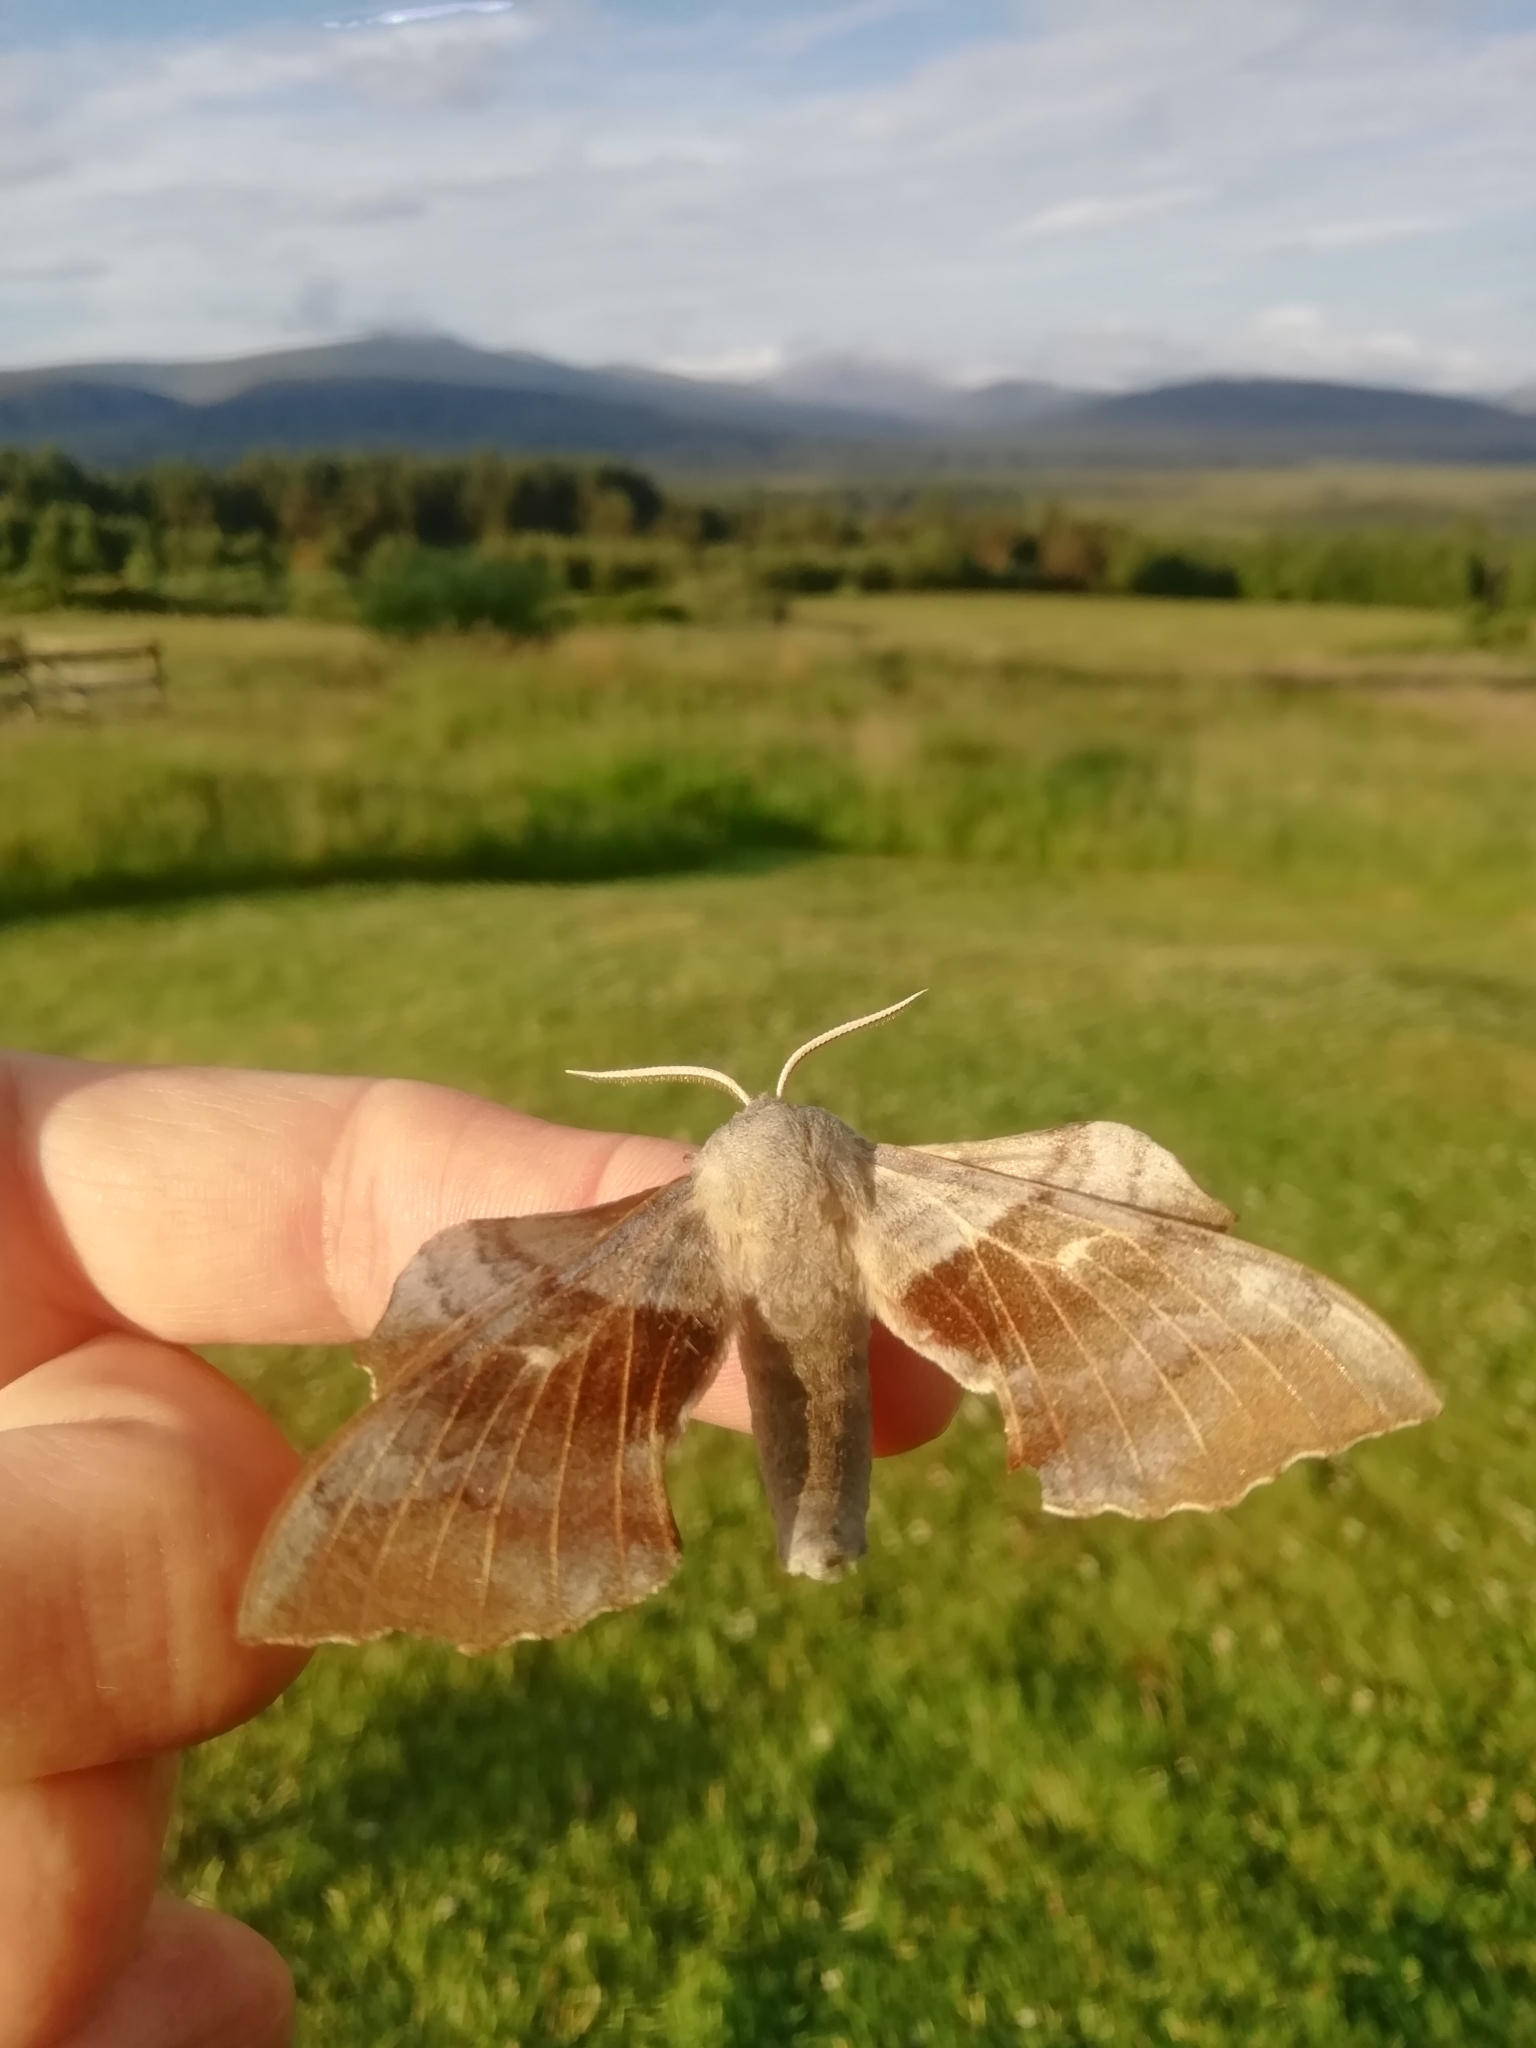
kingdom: Animalia
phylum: Arthropoda
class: Insecta
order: Lepidoptera
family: Sphingidae
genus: Laothoe
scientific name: Laothoe populi
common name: Poplar hawk-moth
